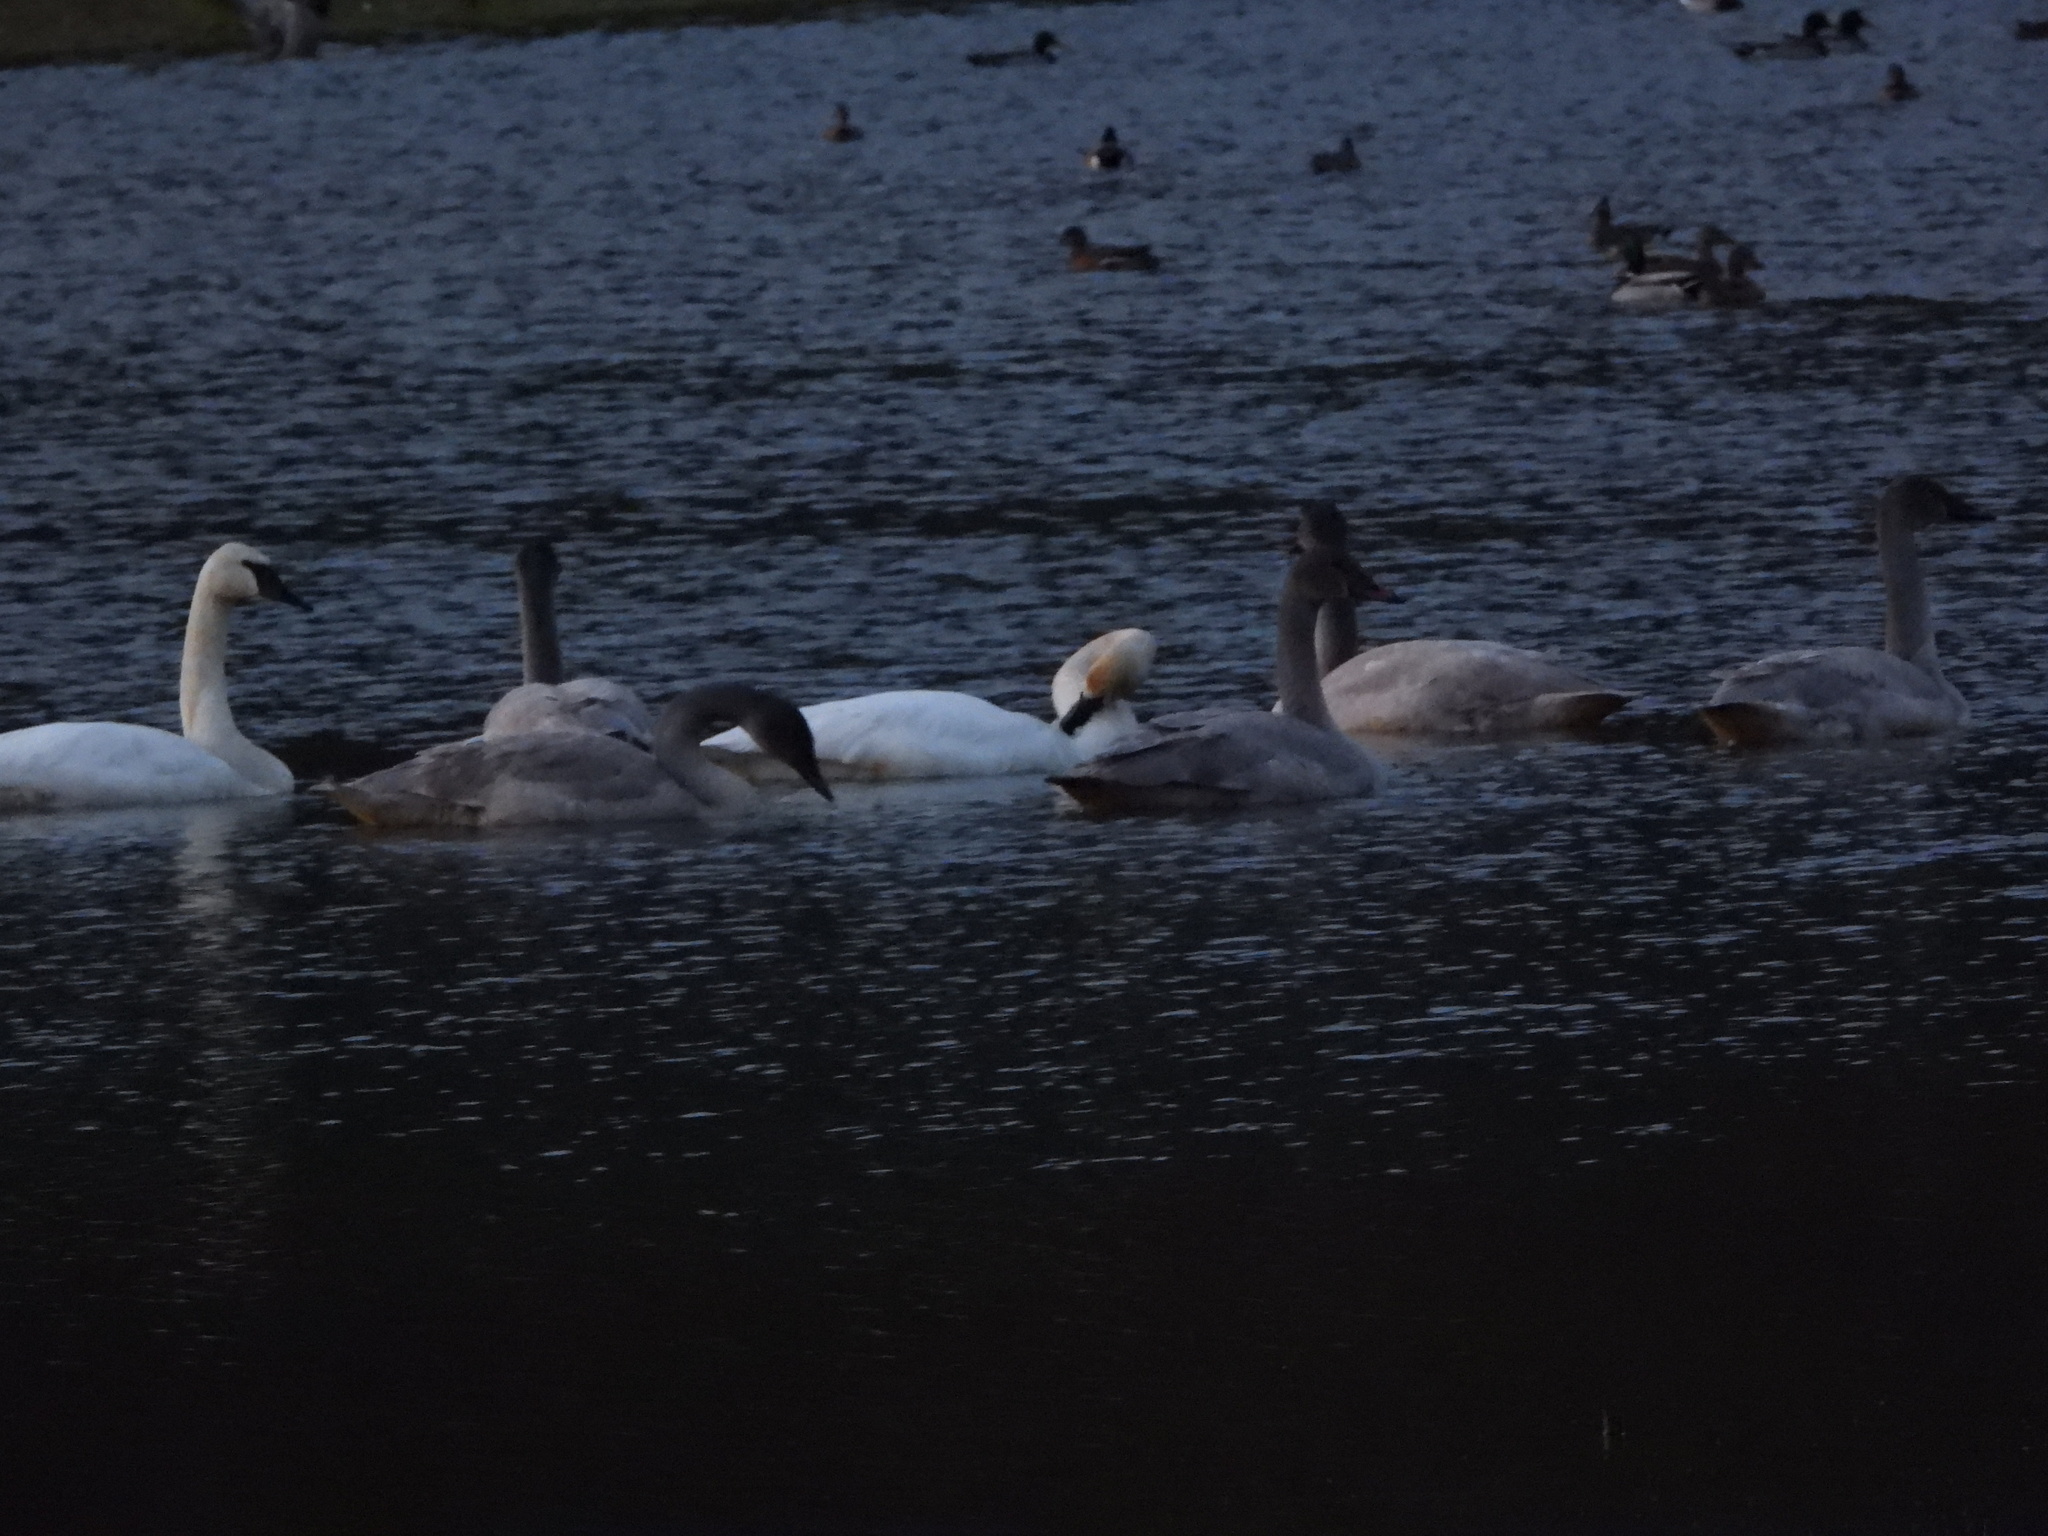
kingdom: Animalia
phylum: Chordata
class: Aves
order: Anseriformes
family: Anatidae
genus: Cygnus
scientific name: Cygnus buccinator
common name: Trumpeter swan
